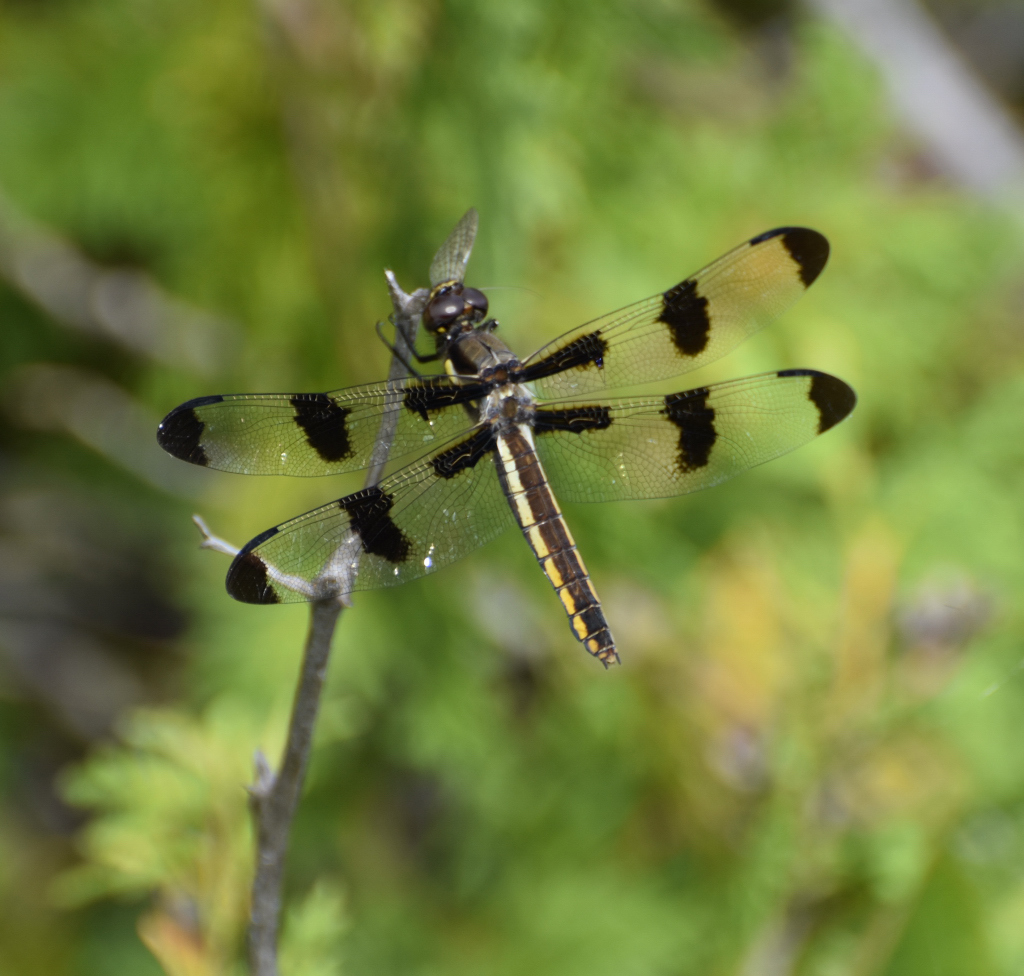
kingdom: Animalia
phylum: Arthropoda
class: Insecta
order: Odonata
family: Libellulidae
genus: Libellula
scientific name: Libellula pulchella
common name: Twelve-spotted skimmer
